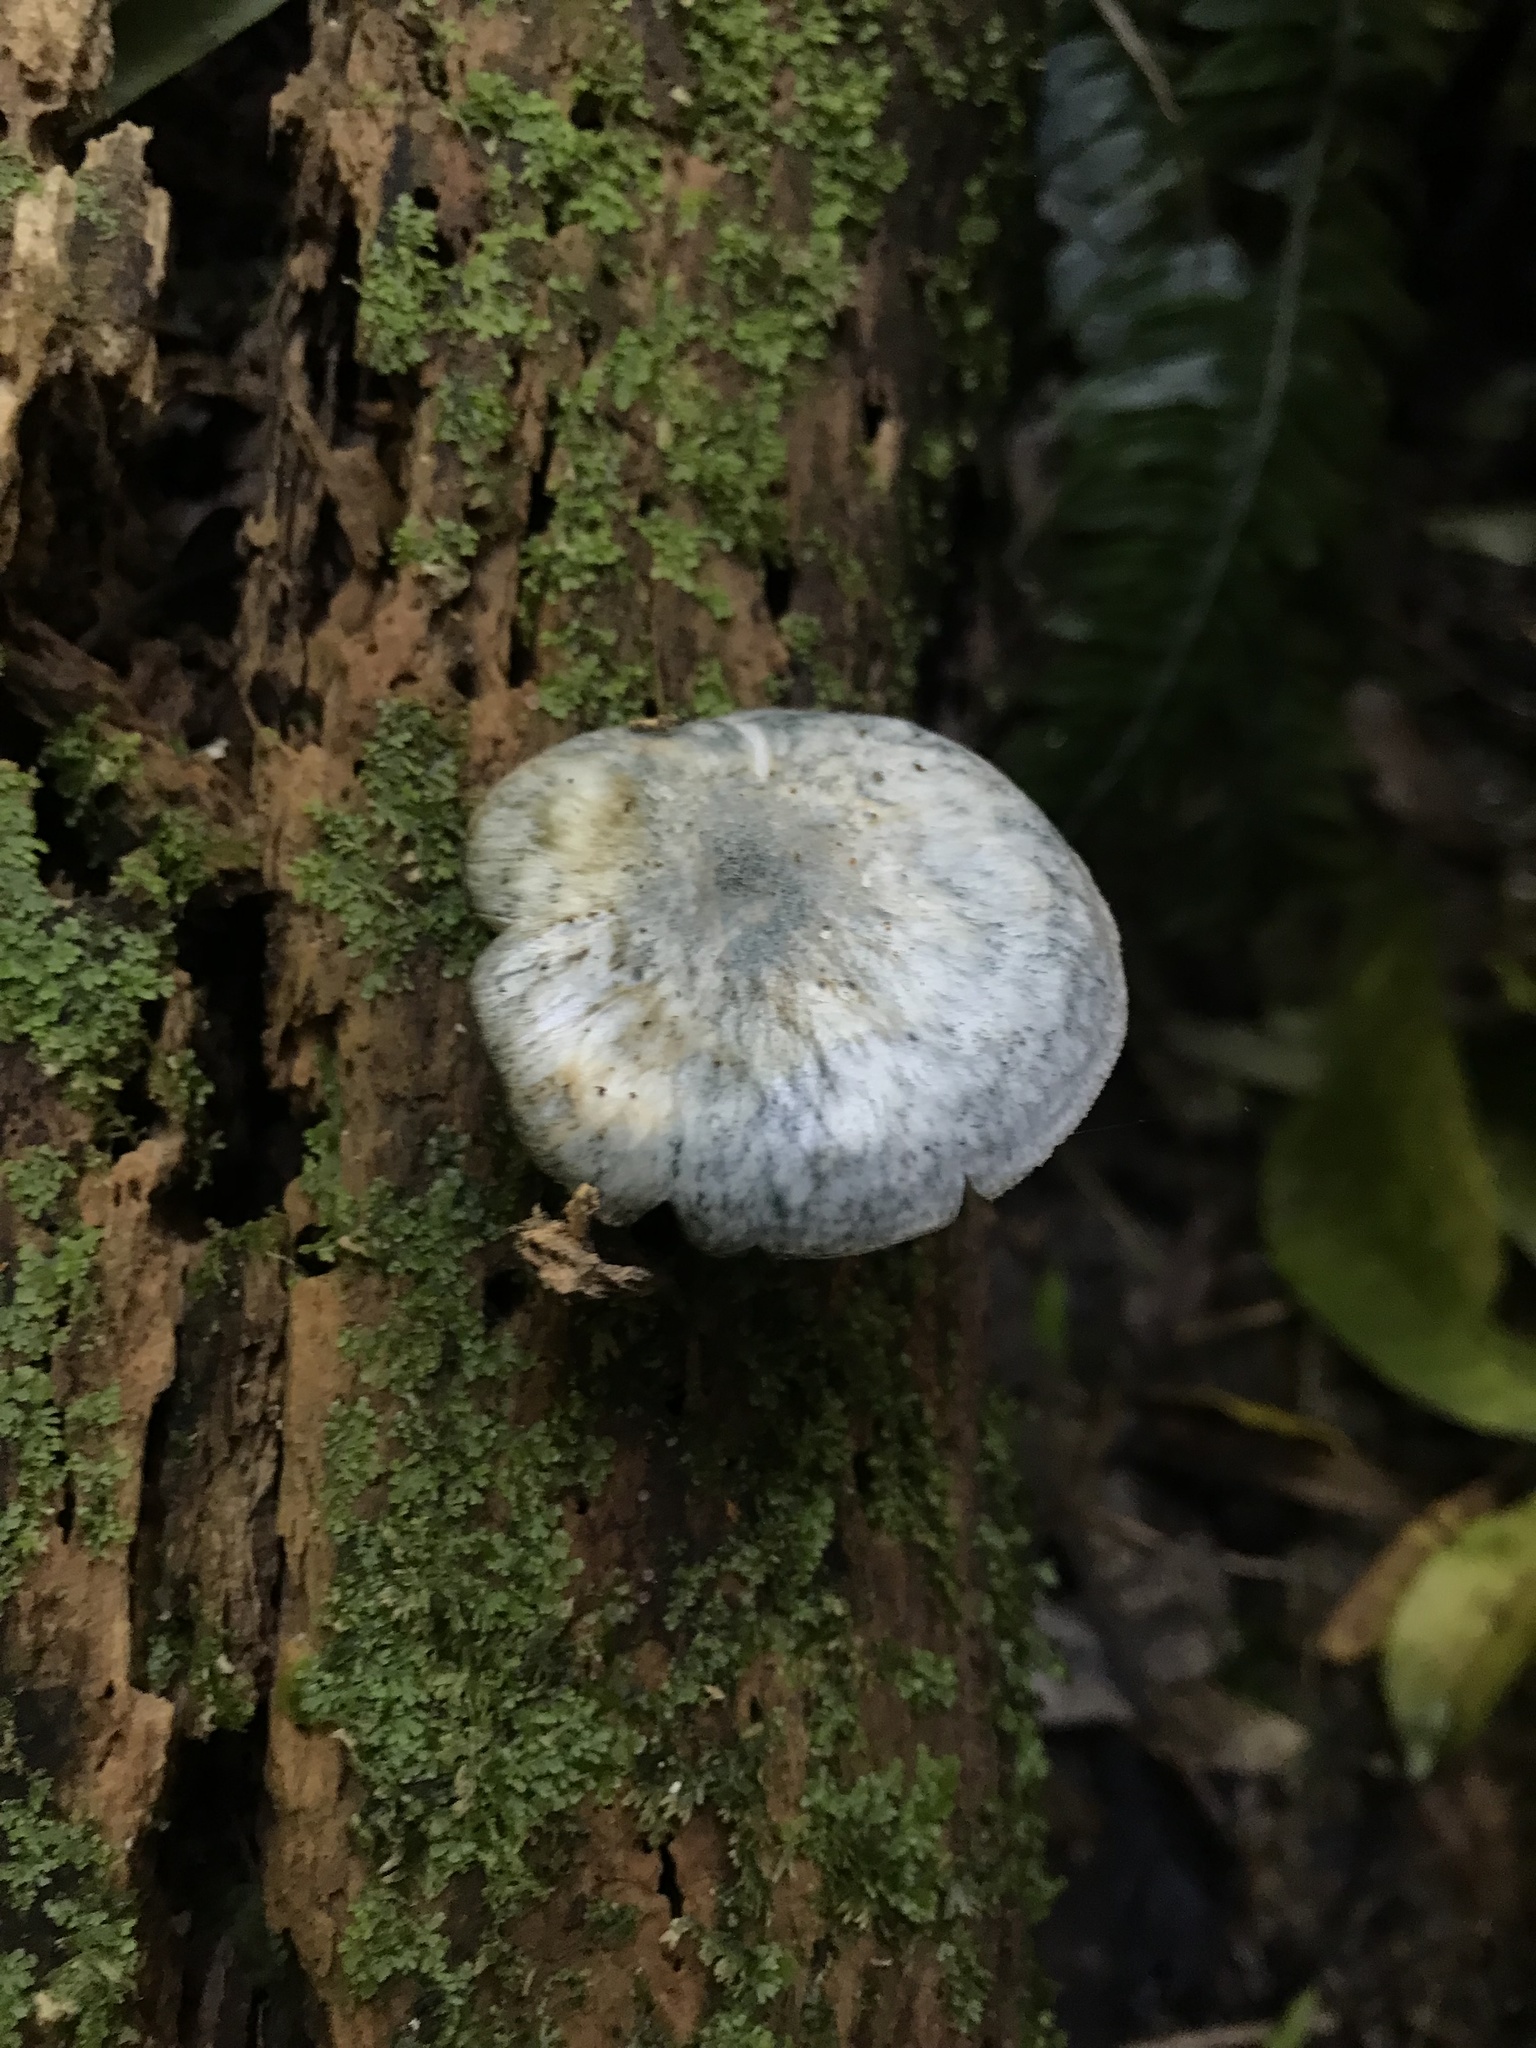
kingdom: Fungi
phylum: Basidiomycota
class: Agaricomycetes
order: Agaricales
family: Pluteaceae
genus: Pluteus
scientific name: Pluteus velutinornatus
